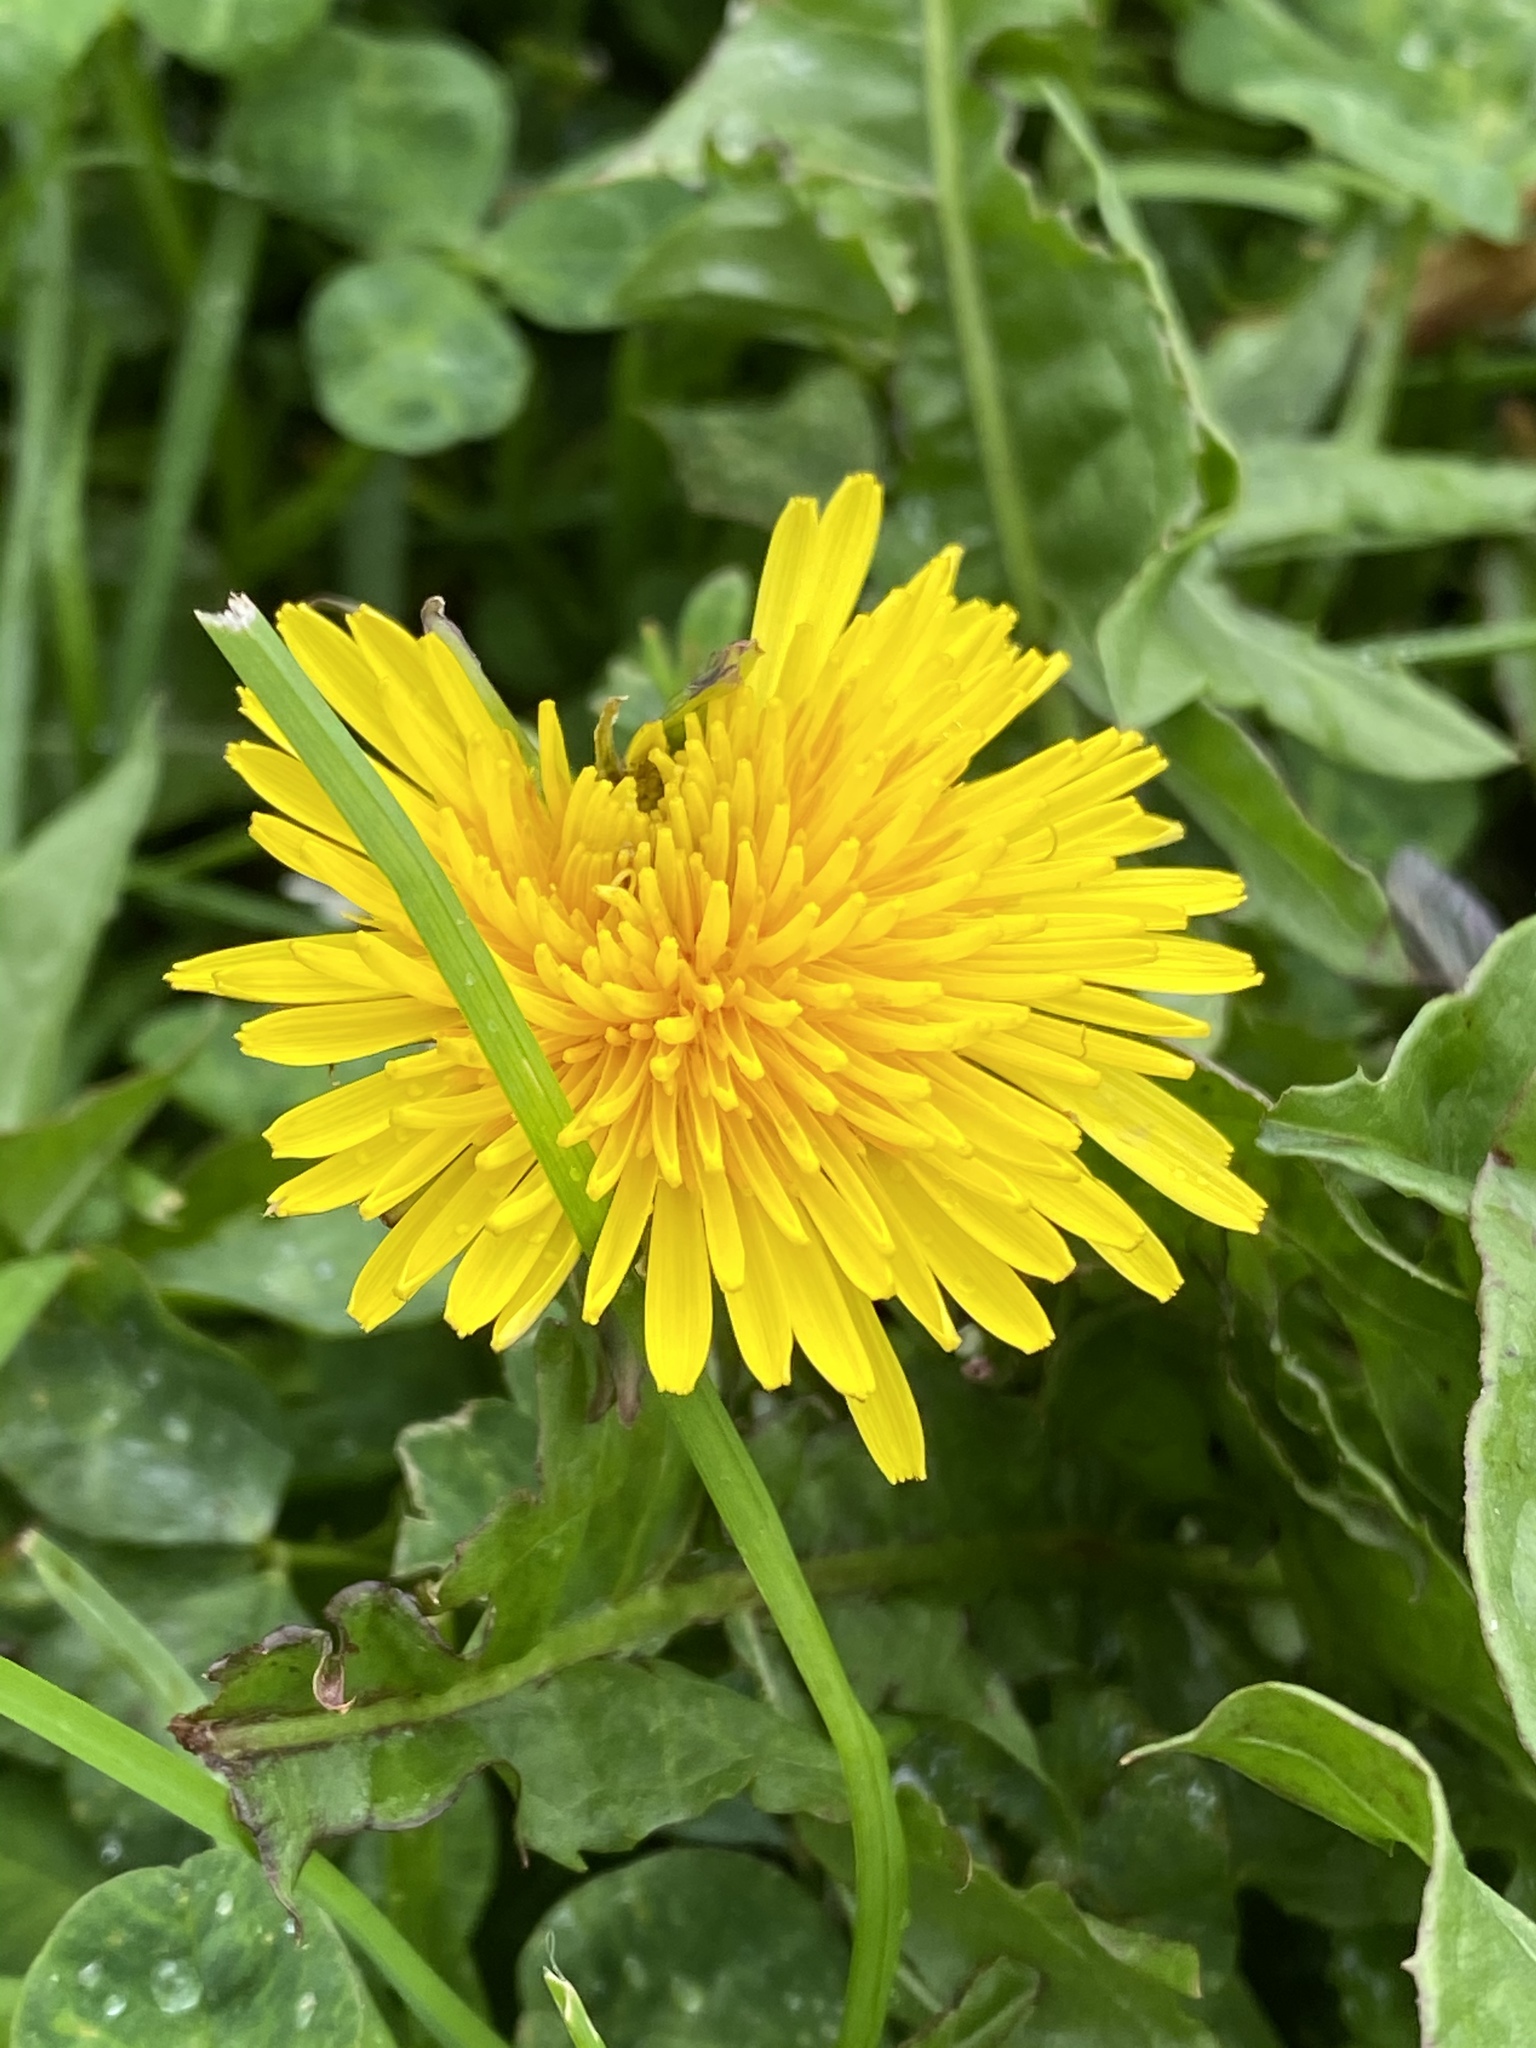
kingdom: Plantae
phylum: Tracheophyta
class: Magnoliopsida
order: Asterales
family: Asteraceae
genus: Taraxacum
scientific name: Taraxacum officinale
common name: Common dandelion
